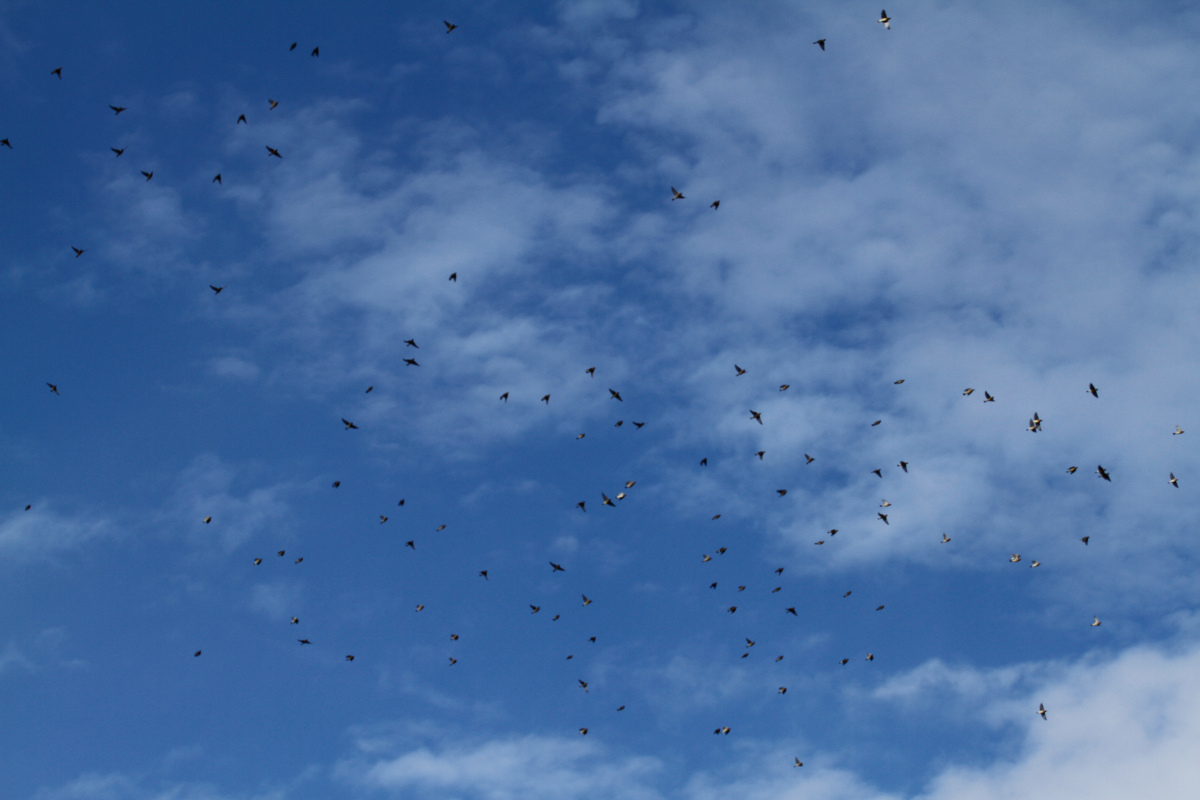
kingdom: Animalia
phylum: Chordata
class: Aves
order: Passeriformes
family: Bombycillidae
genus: Bombycilla
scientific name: Bombycilla cedrorum
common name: Cedar waxwing
